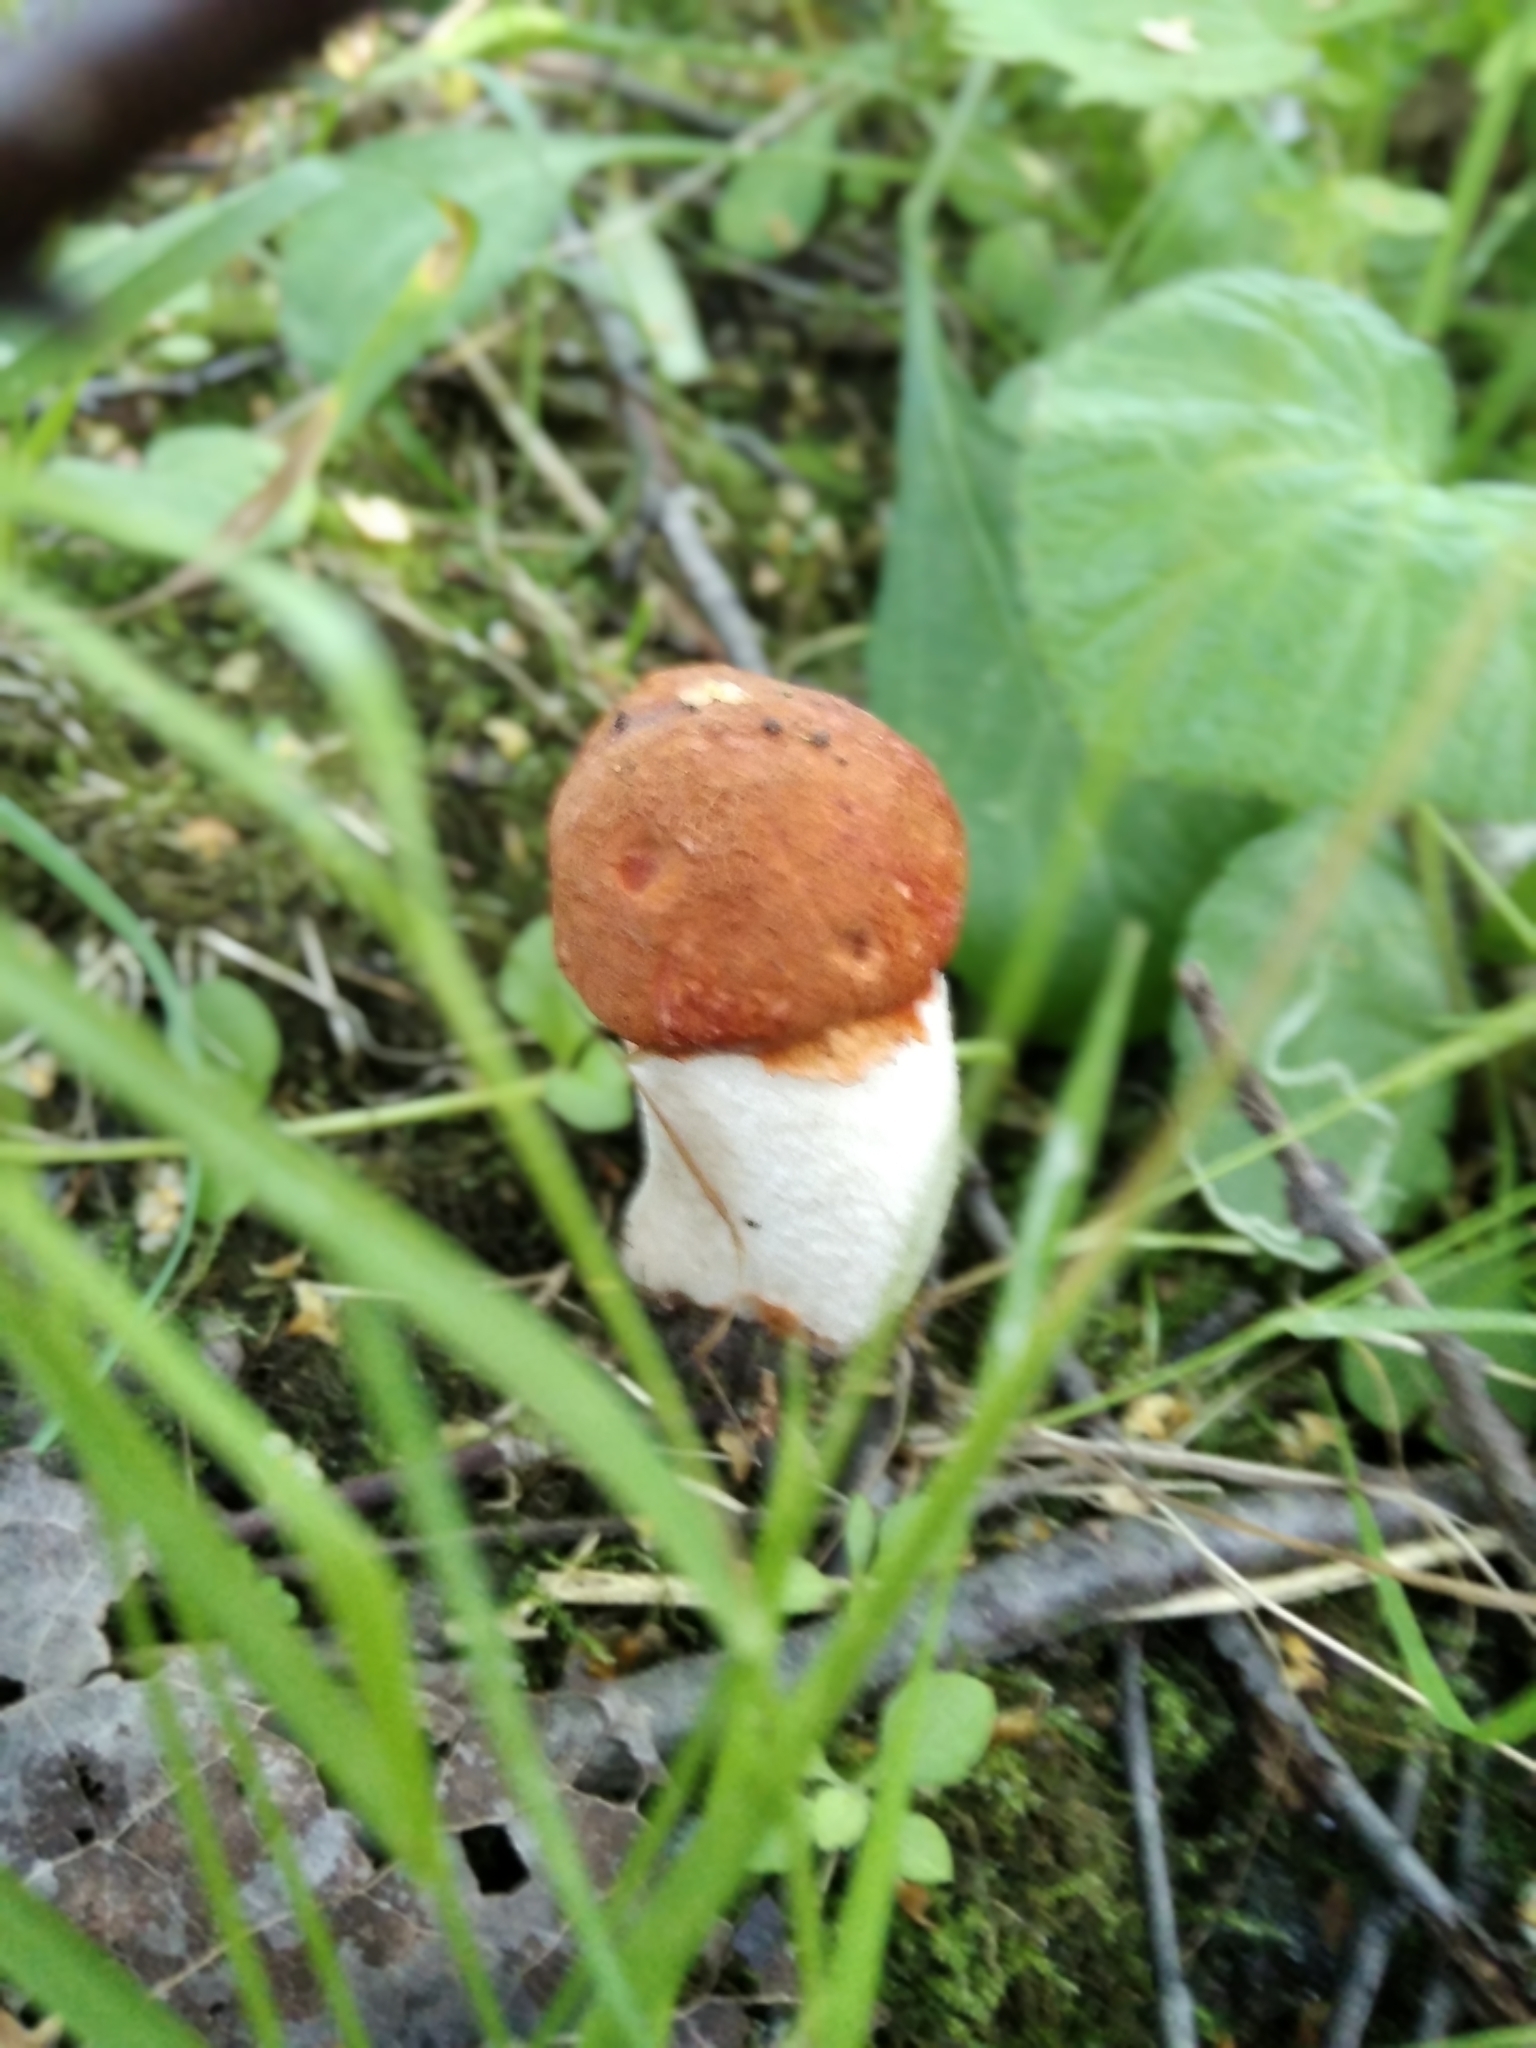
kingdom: Fungi
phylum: Basidiomycota
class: Agaricomycetes
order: Boletales
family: Boletaceae
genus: Leccinum
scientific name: Leccinum albostipitatum
